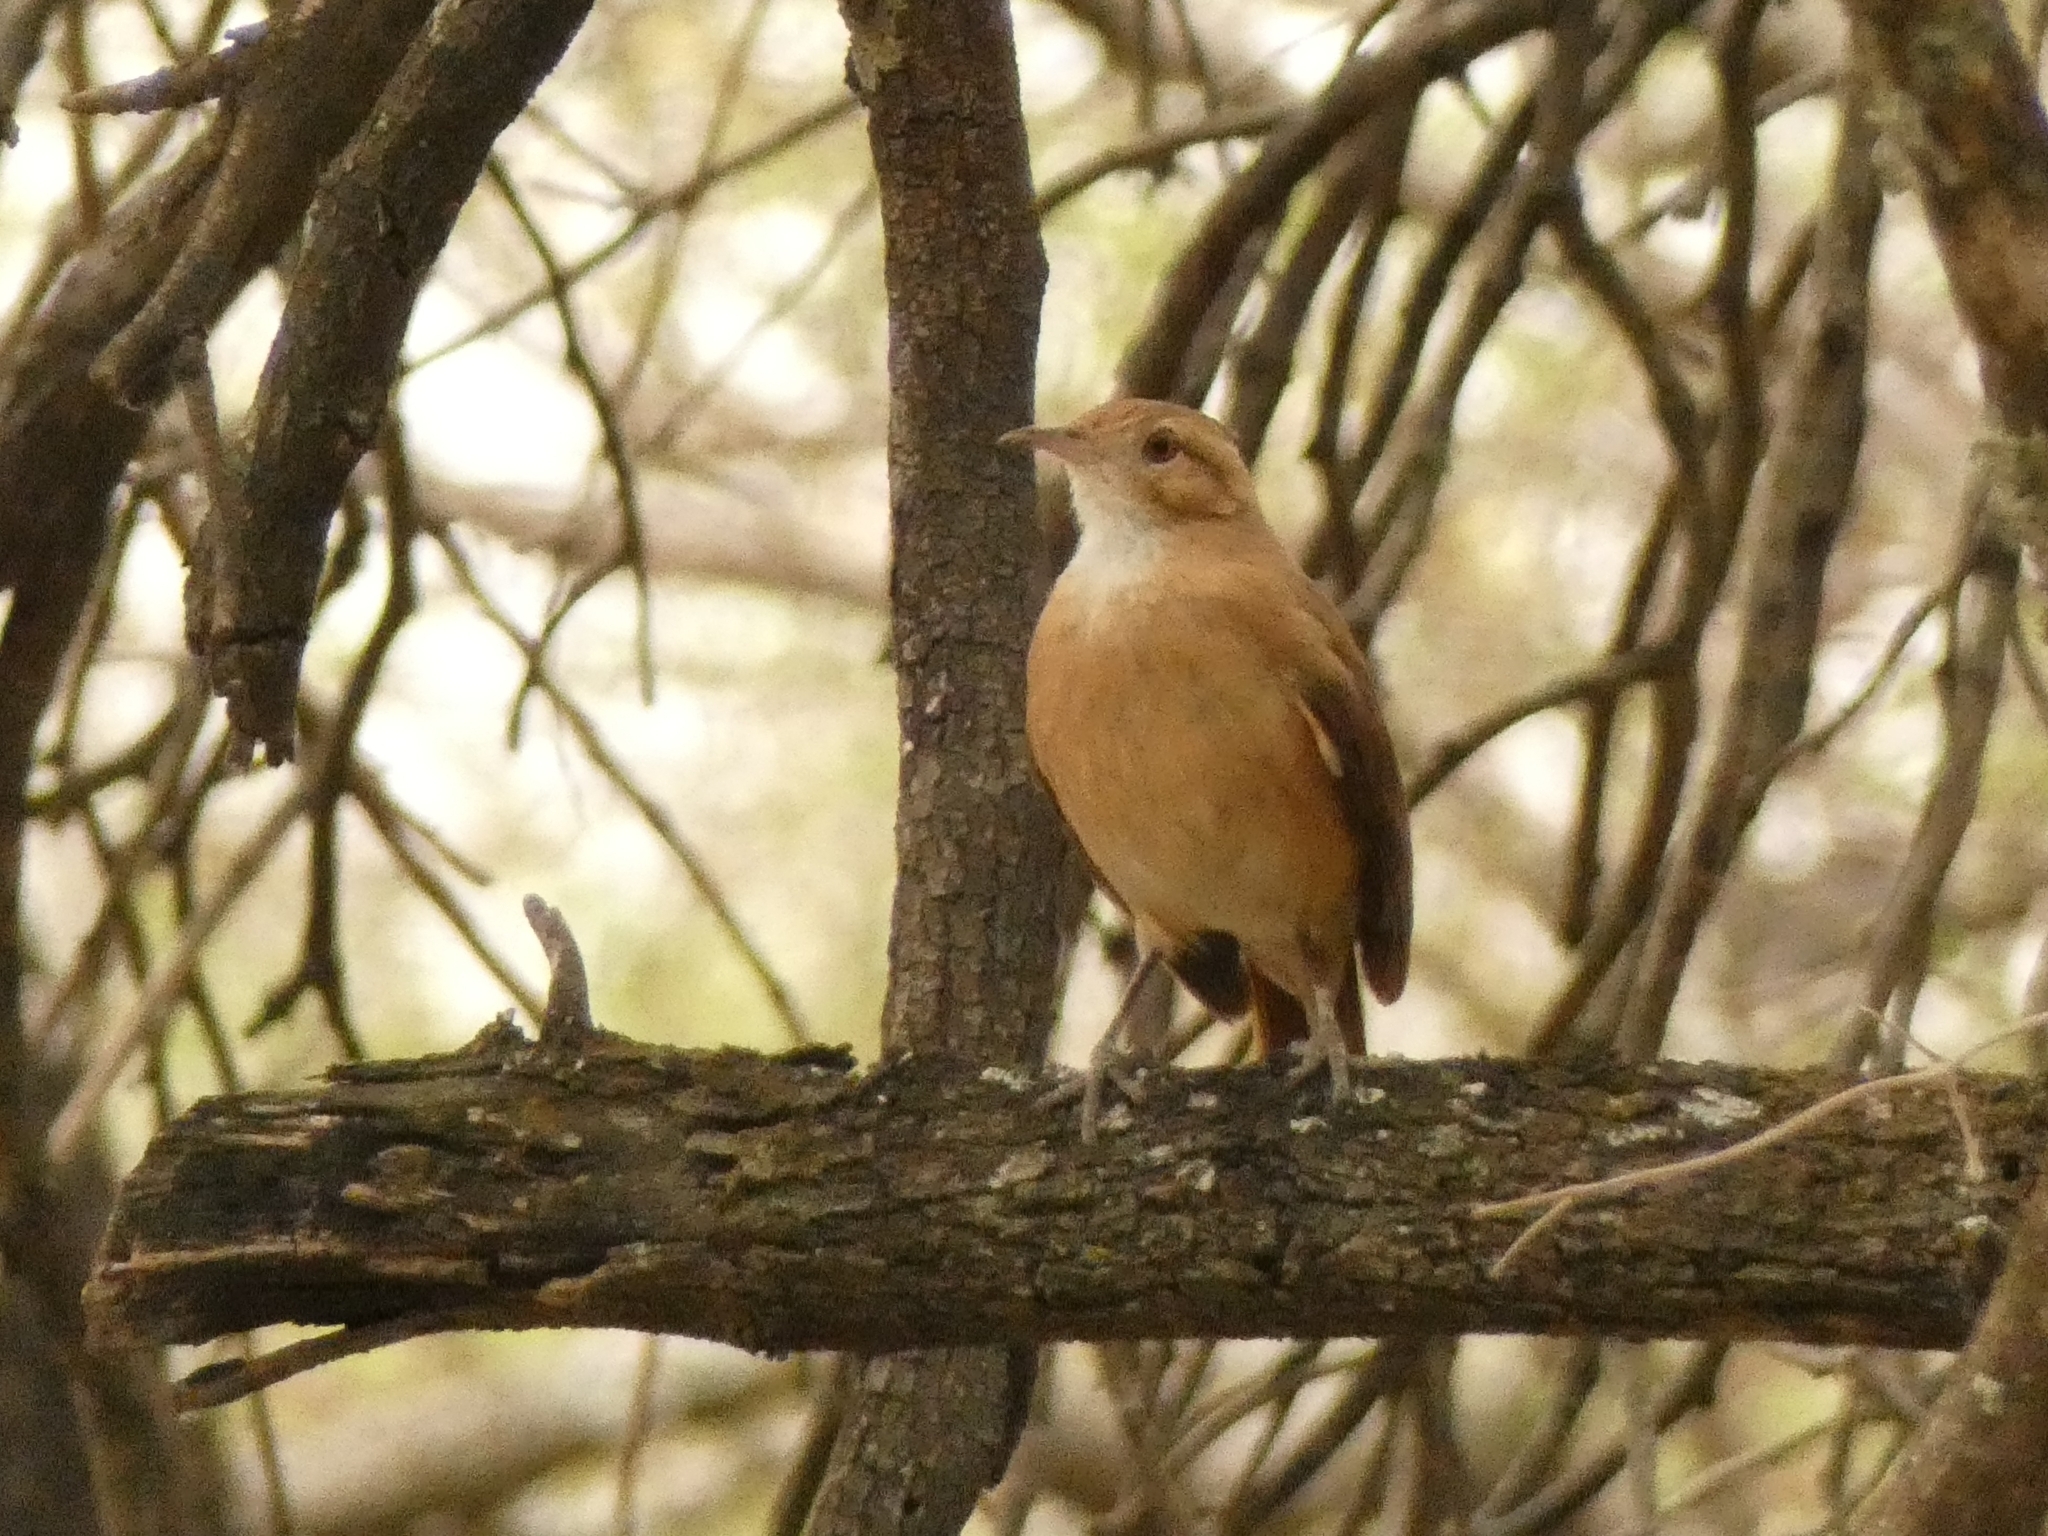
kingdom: Animalia
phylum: Chordata
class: Aves
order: Passeriformes
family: Furnariidae
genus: Furnarius
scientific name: Furnarius rufus
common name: Rufous hornero
